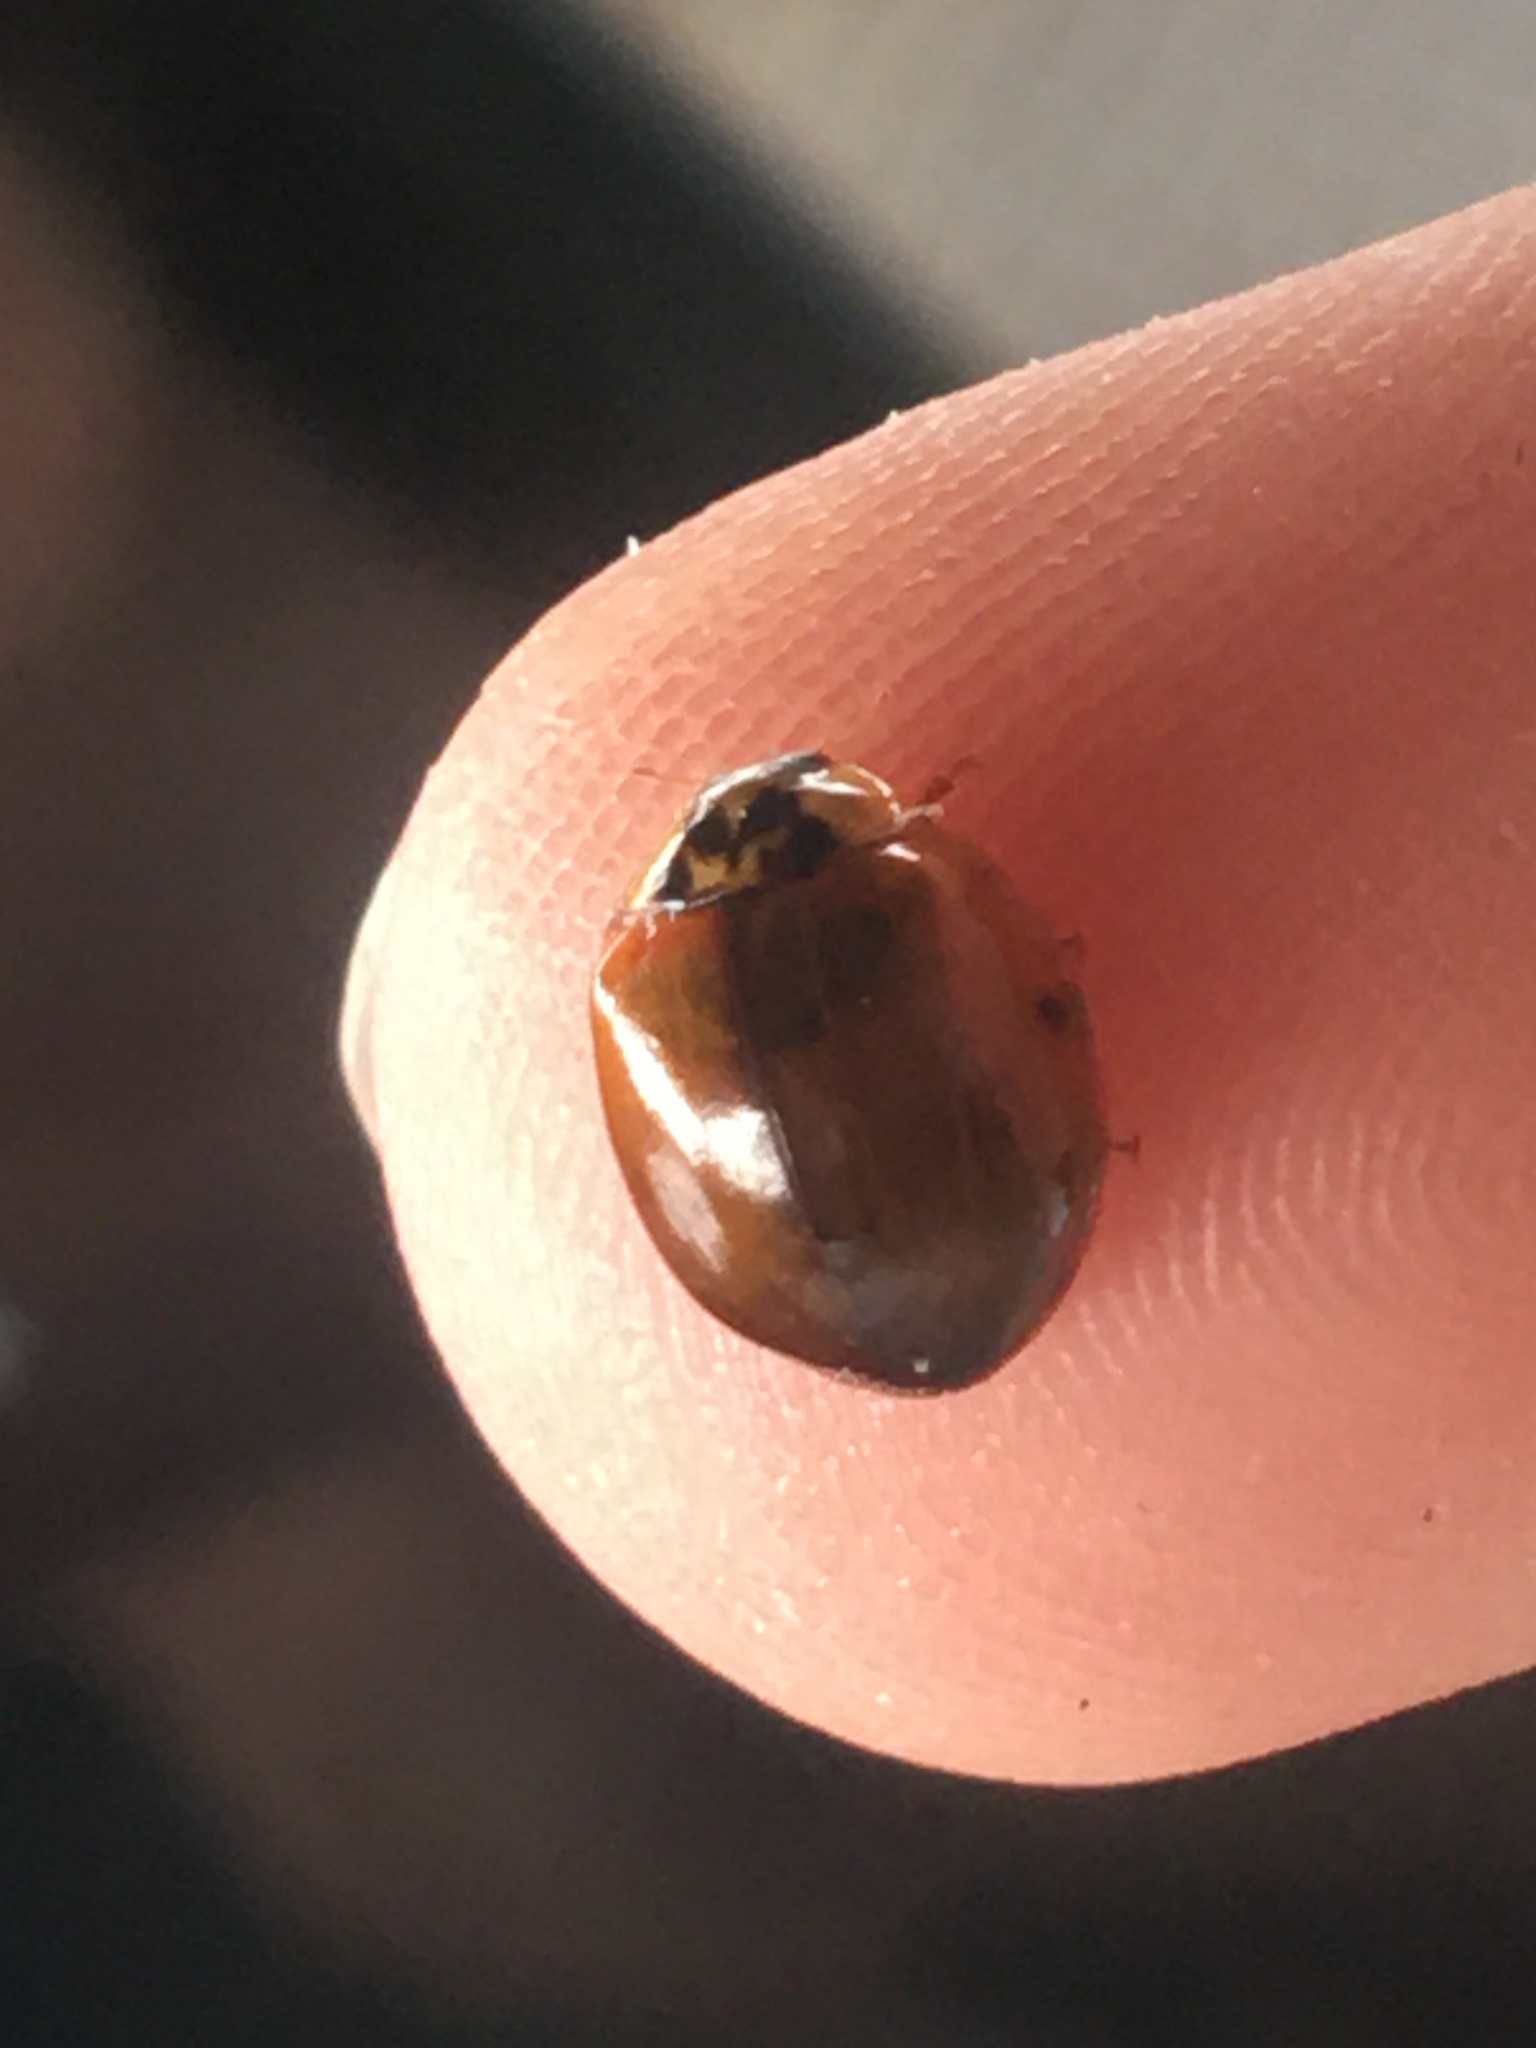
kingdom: Animalia
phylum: Arthropoda
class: Insecta
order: Coleoptera
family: Coccinellidae
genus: Harmonia
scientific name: Harmonia axyridis
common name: Harlequin ladybird
